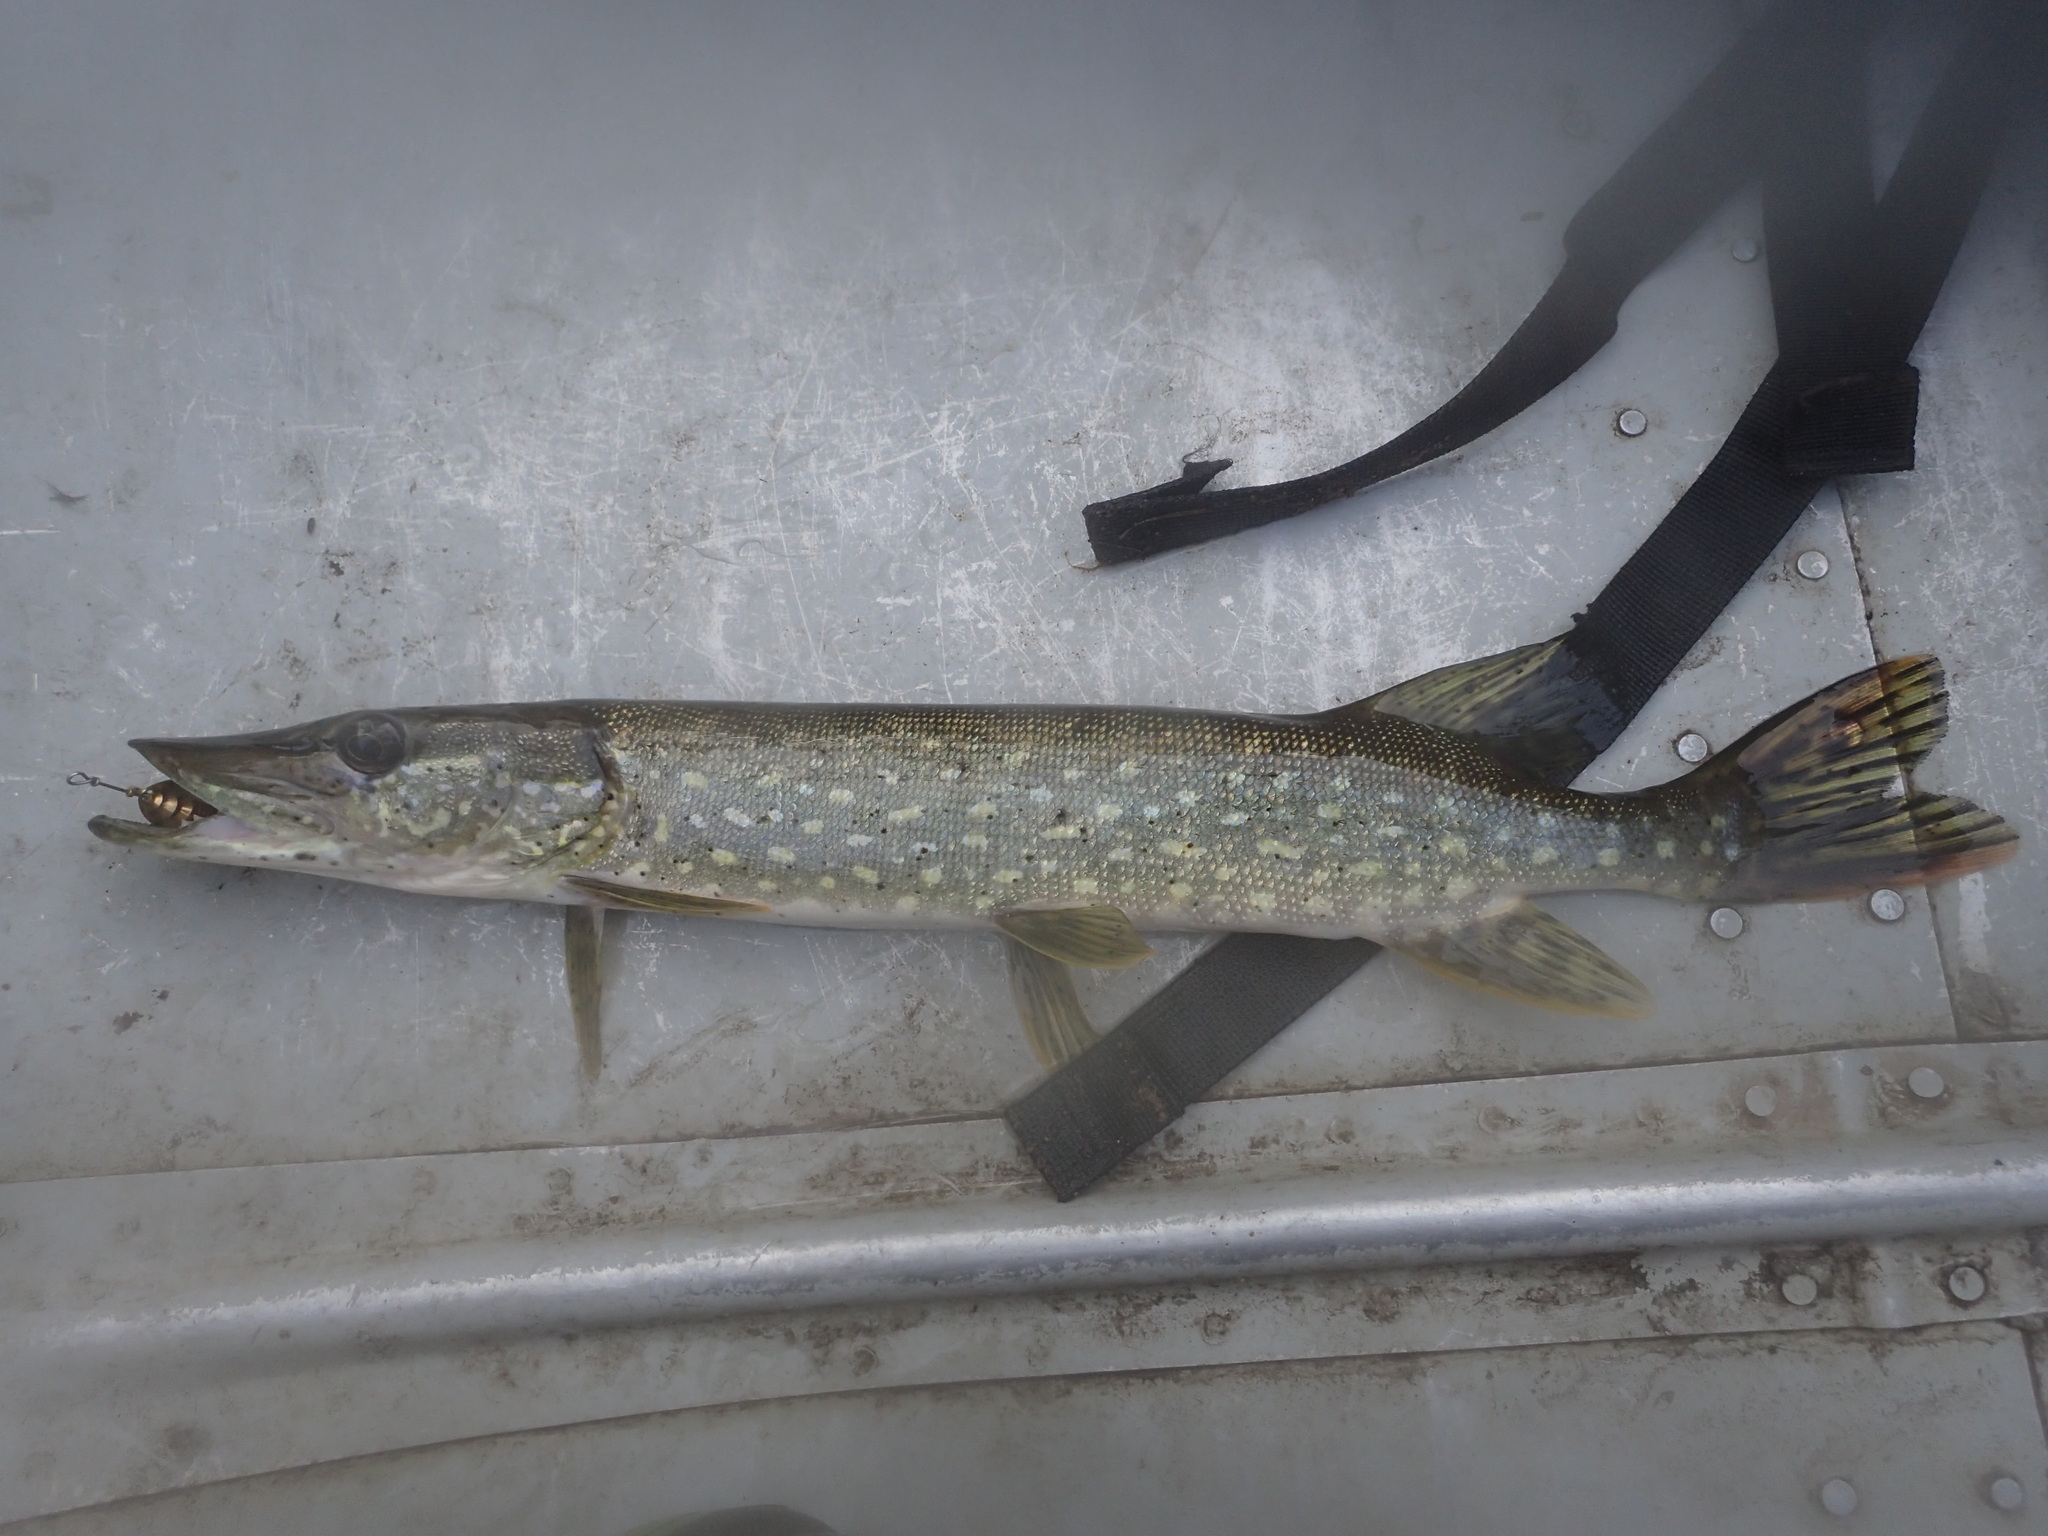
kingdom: Animalia
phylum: Chordata
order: Esociformes
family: Esocidae
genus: Esox
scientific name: Esox lucius
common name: Northern pike
